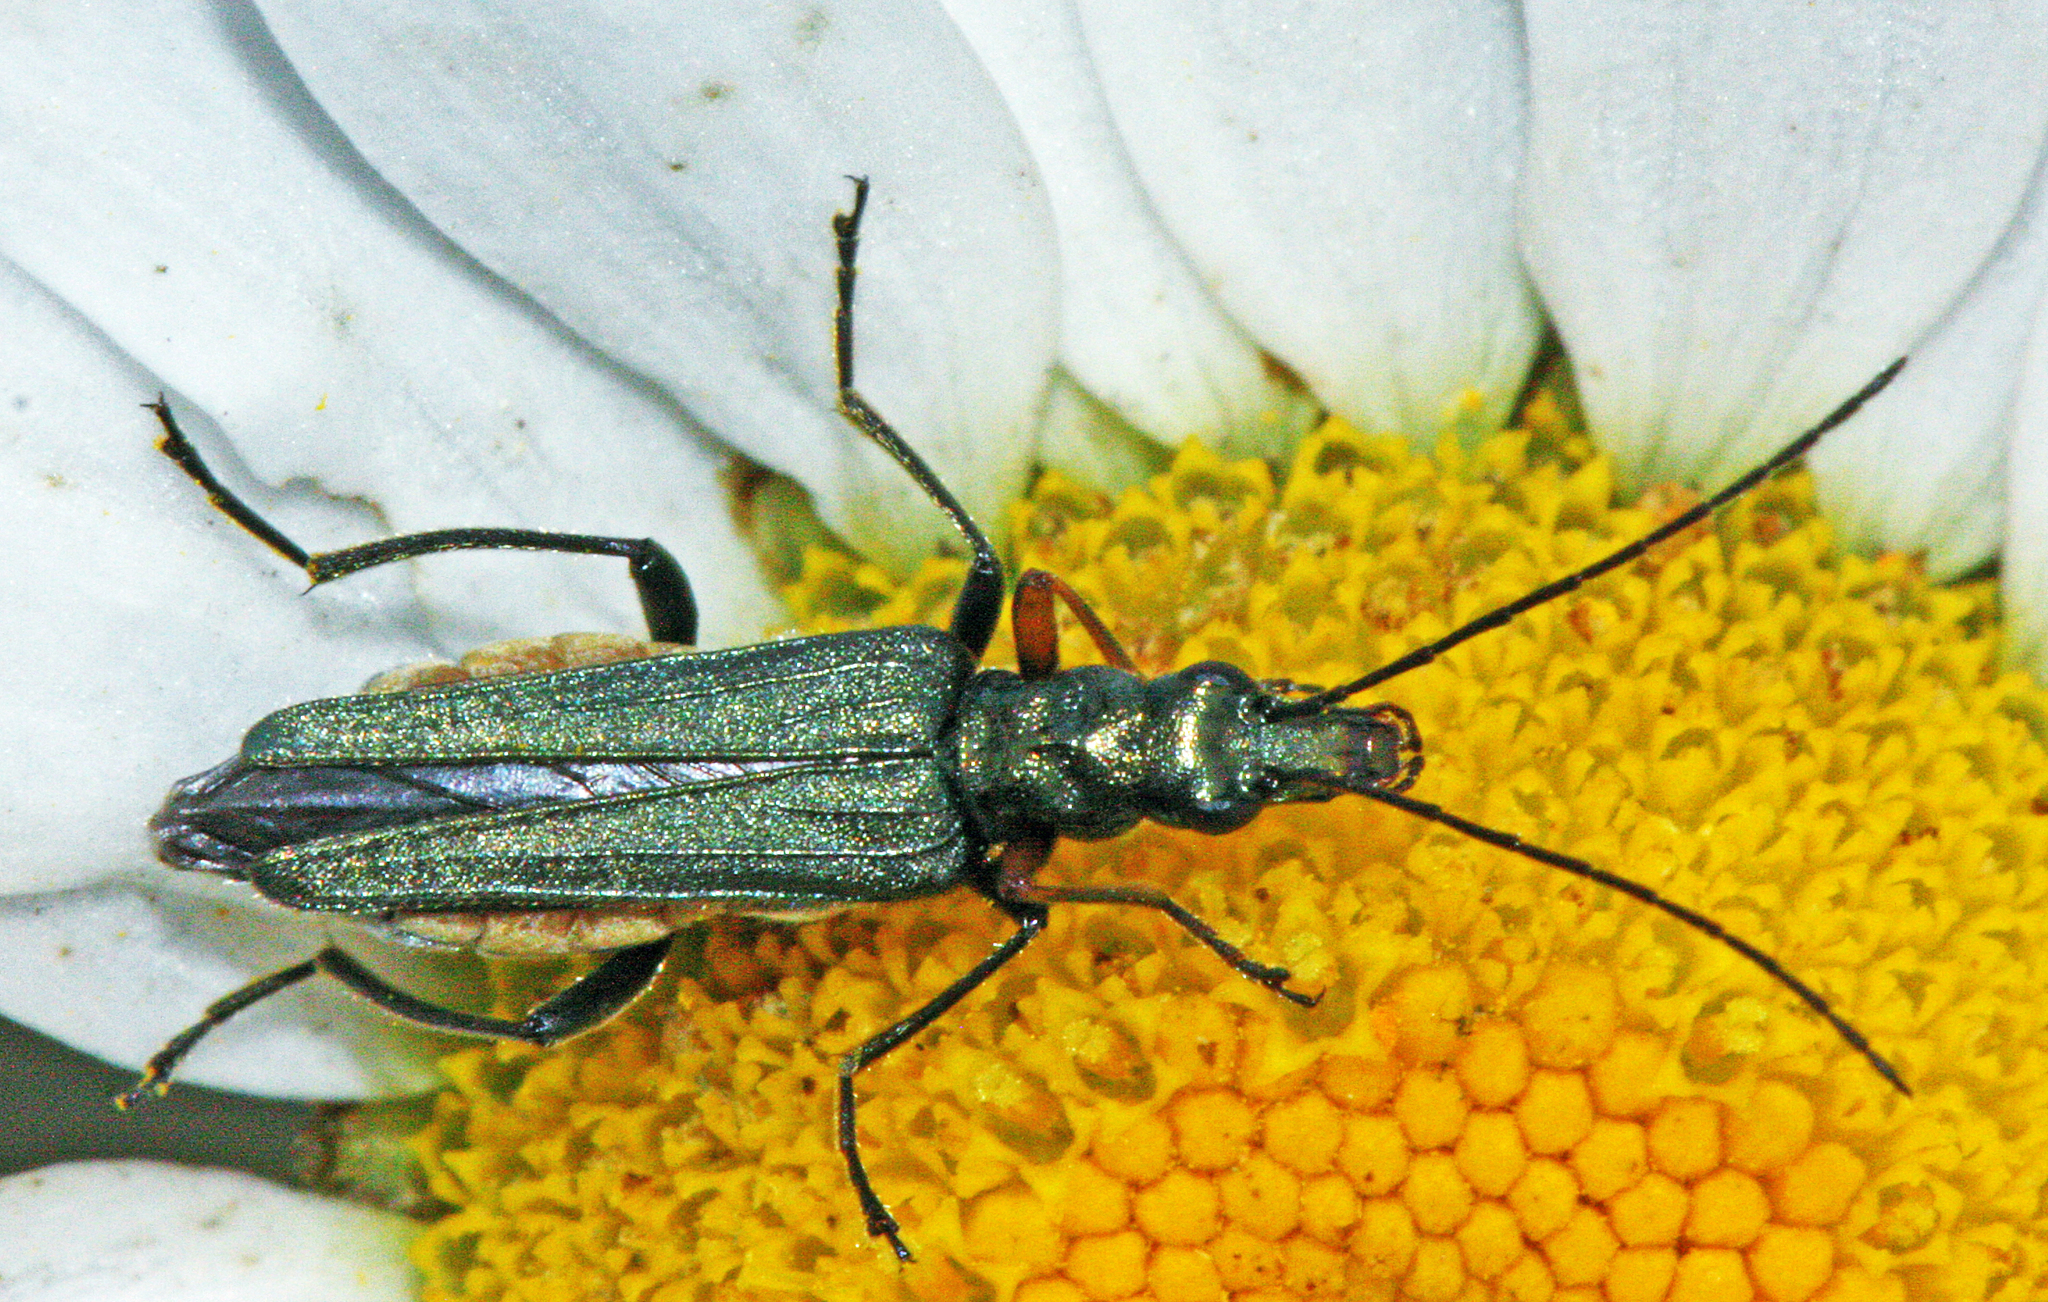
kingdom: Animalia
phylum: Arthropoda
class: Insecta
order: Coleoptera
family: Oedemeridae
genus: Oedemera
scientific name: Oedemera flavipes
